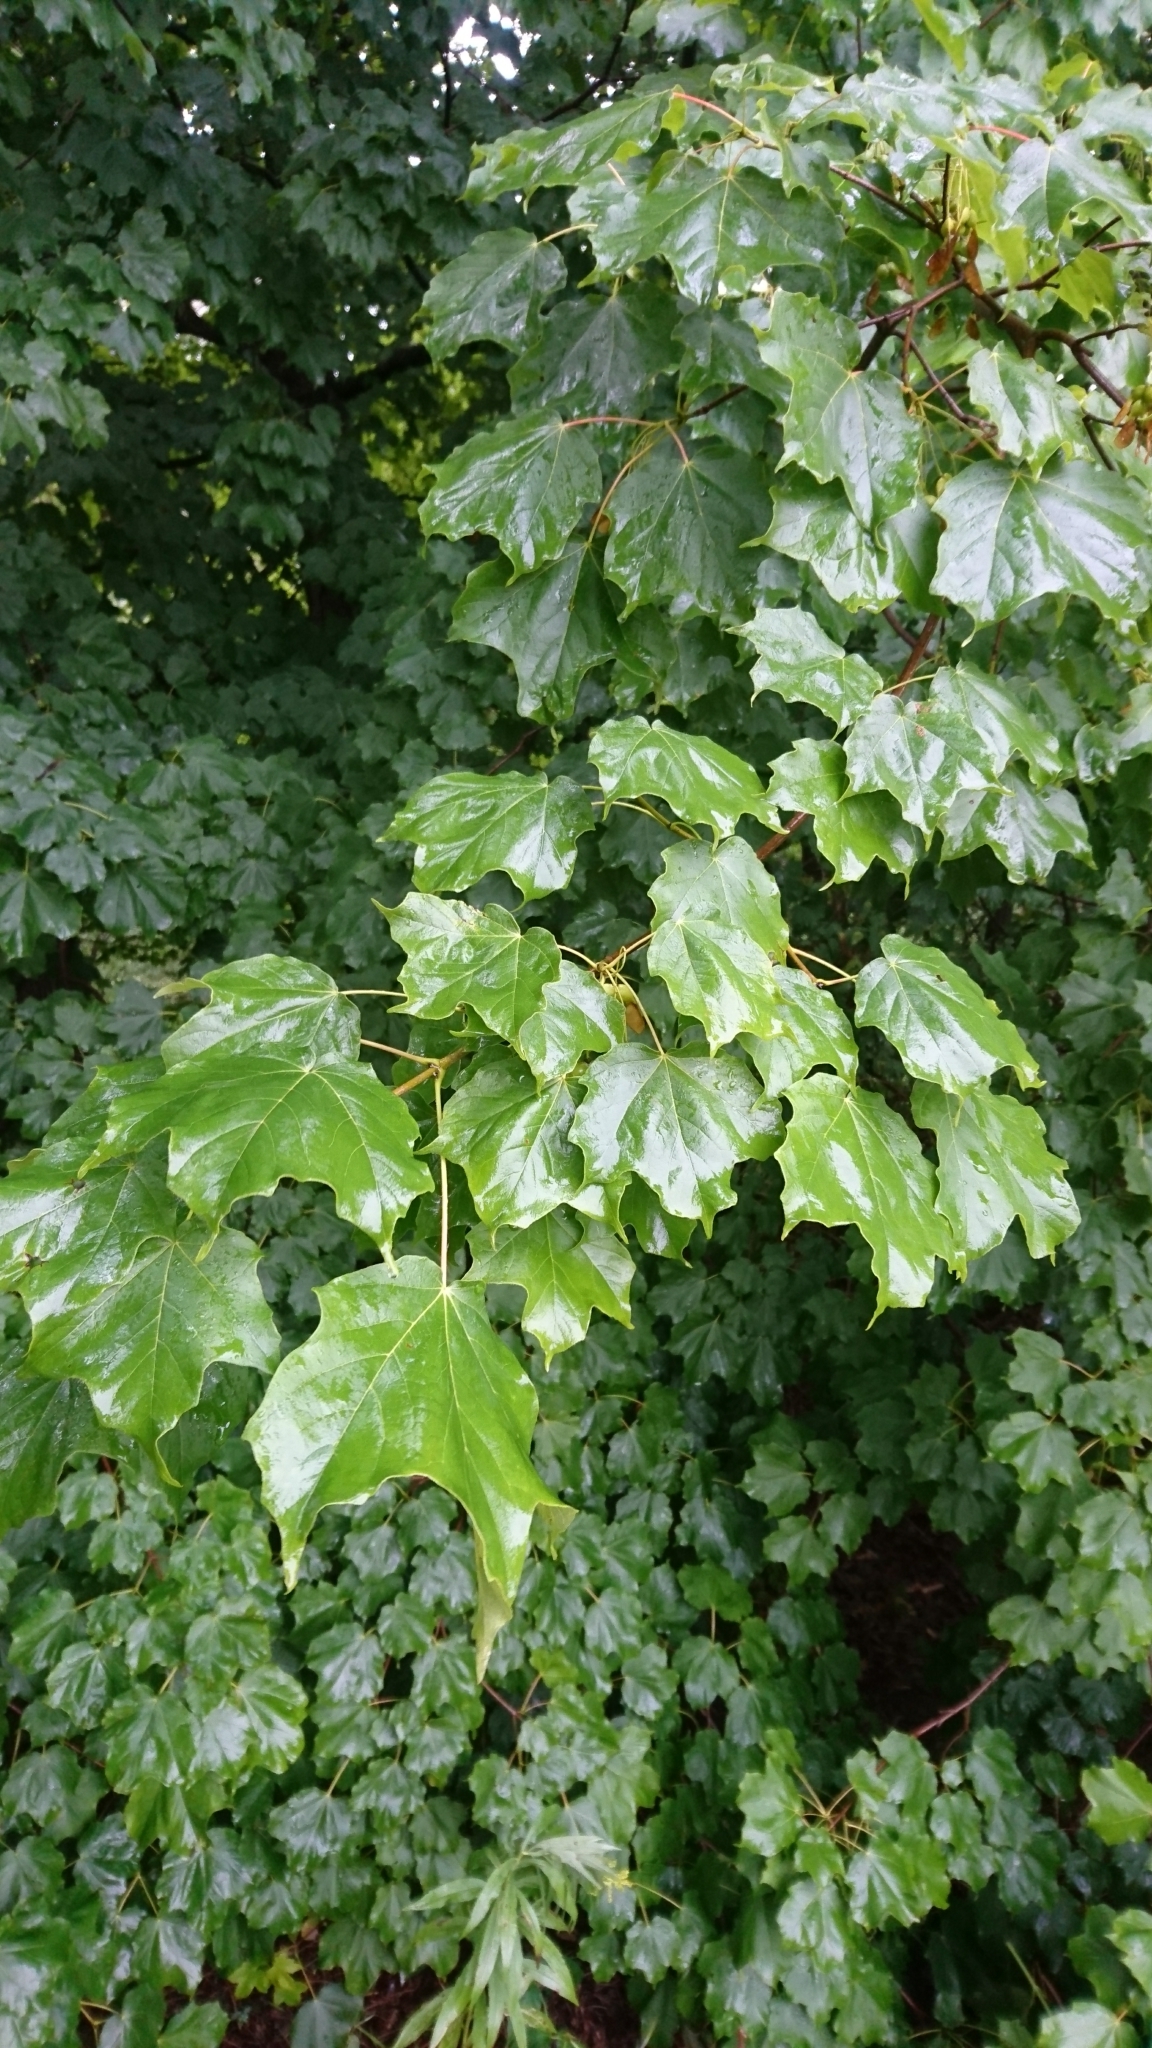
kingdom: Plantae
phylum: Tracheophyta
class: Magnoliopsida
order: Sapindales
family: Sapindaceae
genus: Acer
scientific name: Acer nigrum
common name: Black maple
